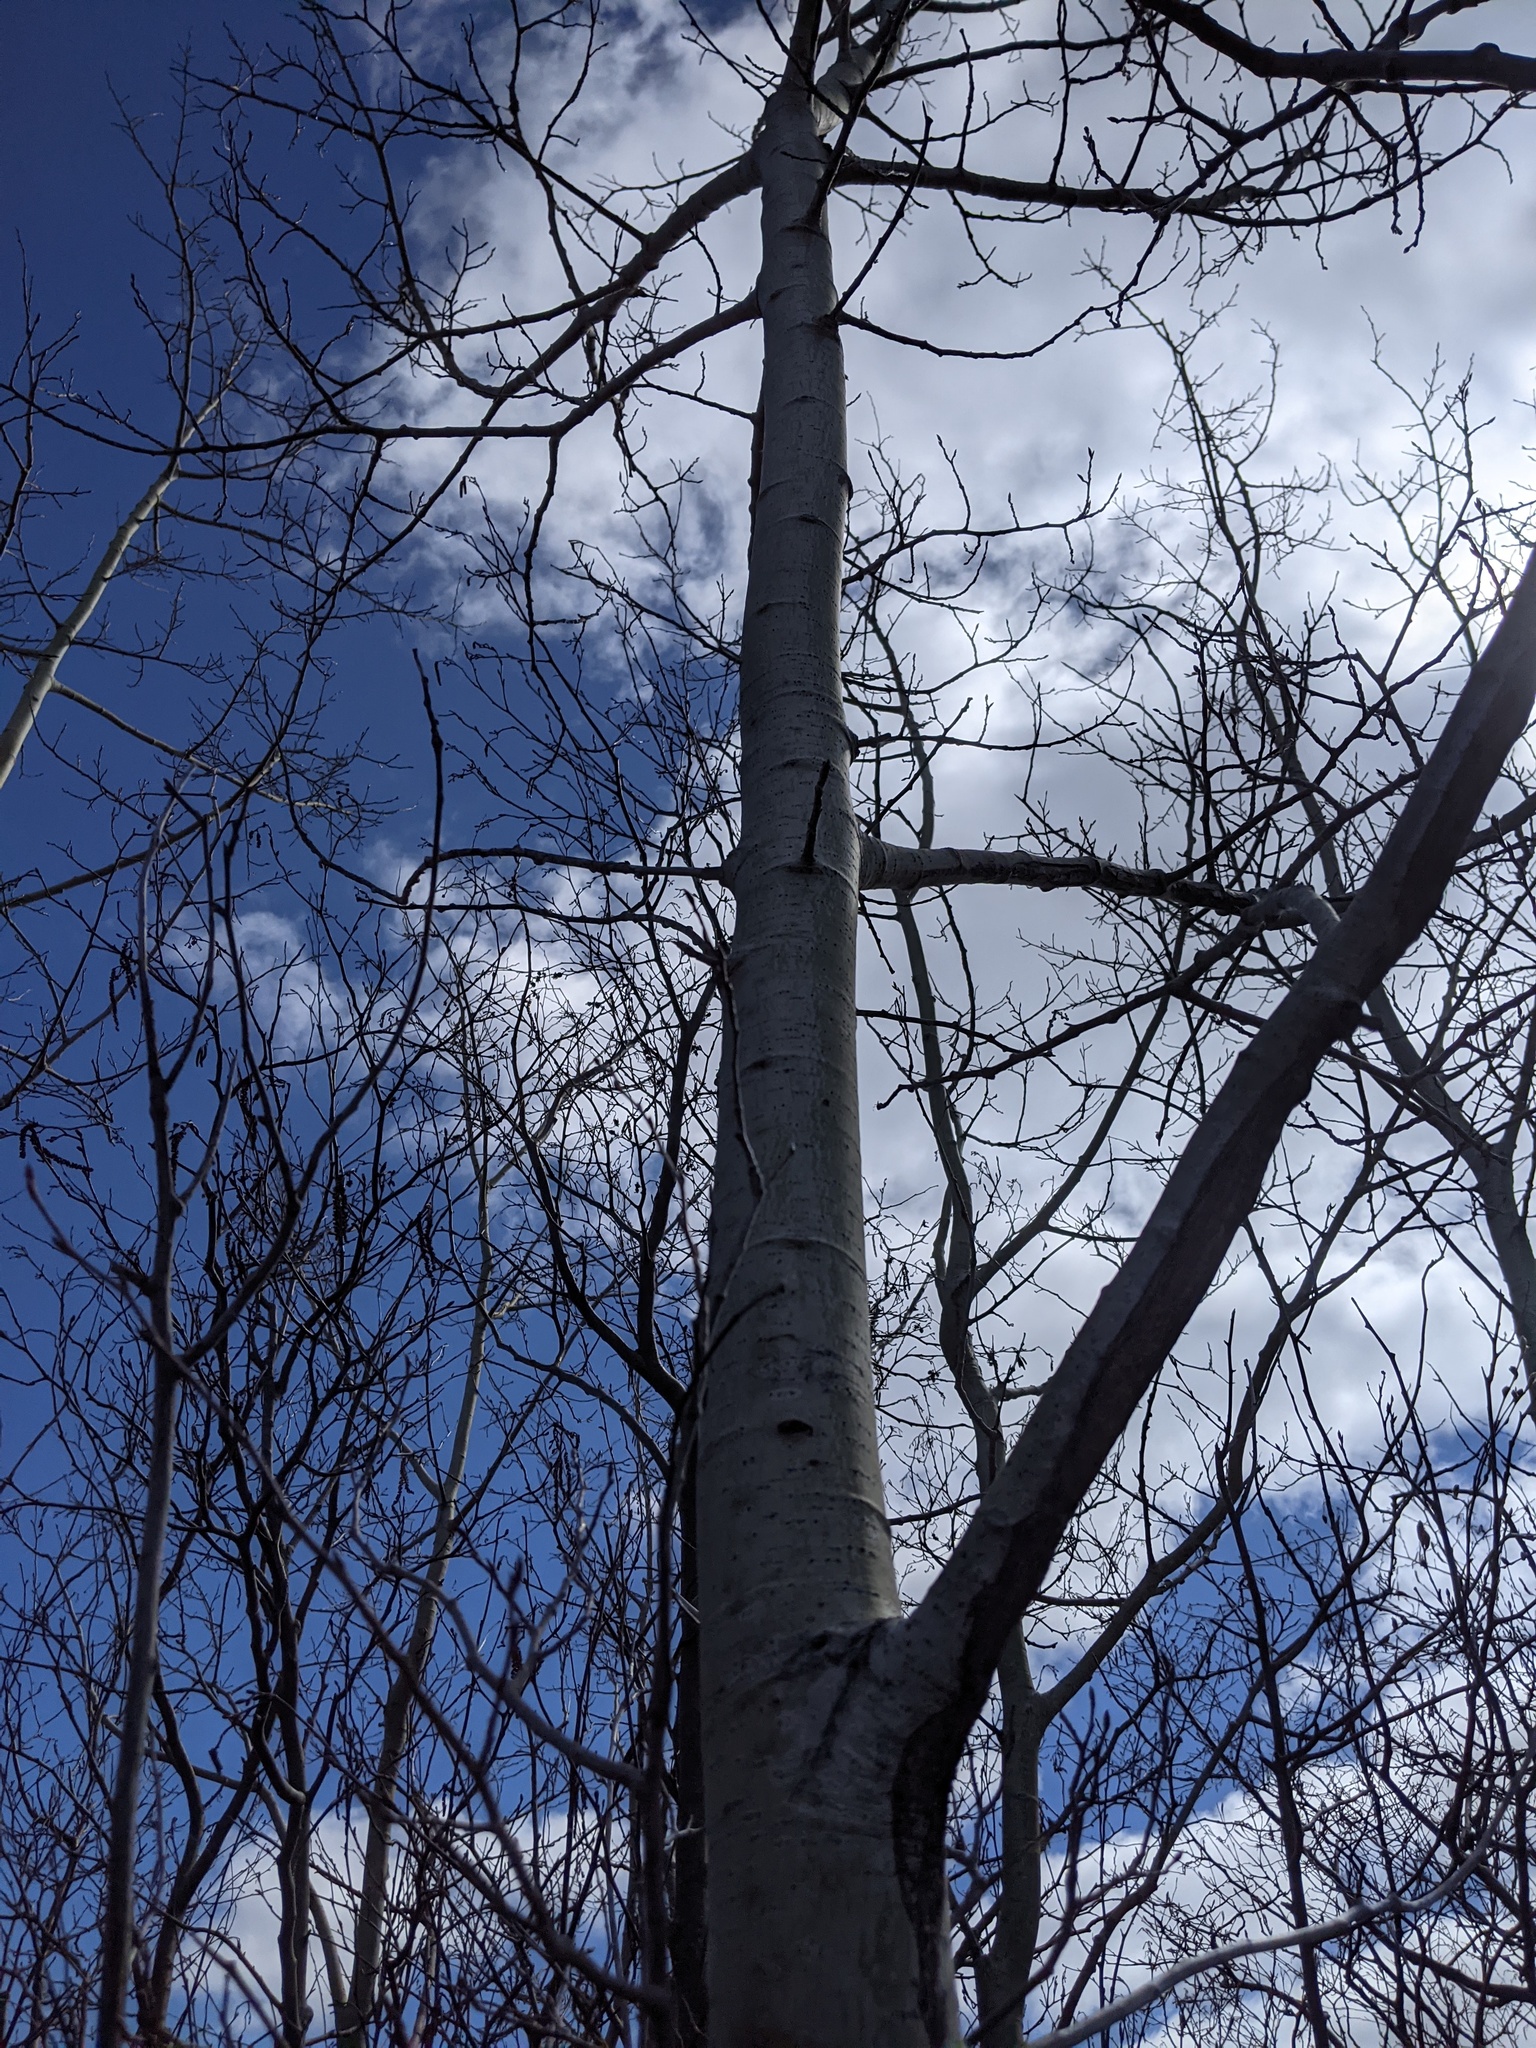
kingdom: Plantae
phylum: Tracheophyta
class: Magnoliopsida
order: Malpighiales
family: Salicaceae
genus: Populus
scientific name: Populus tremuloides
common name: Quaking aspen
